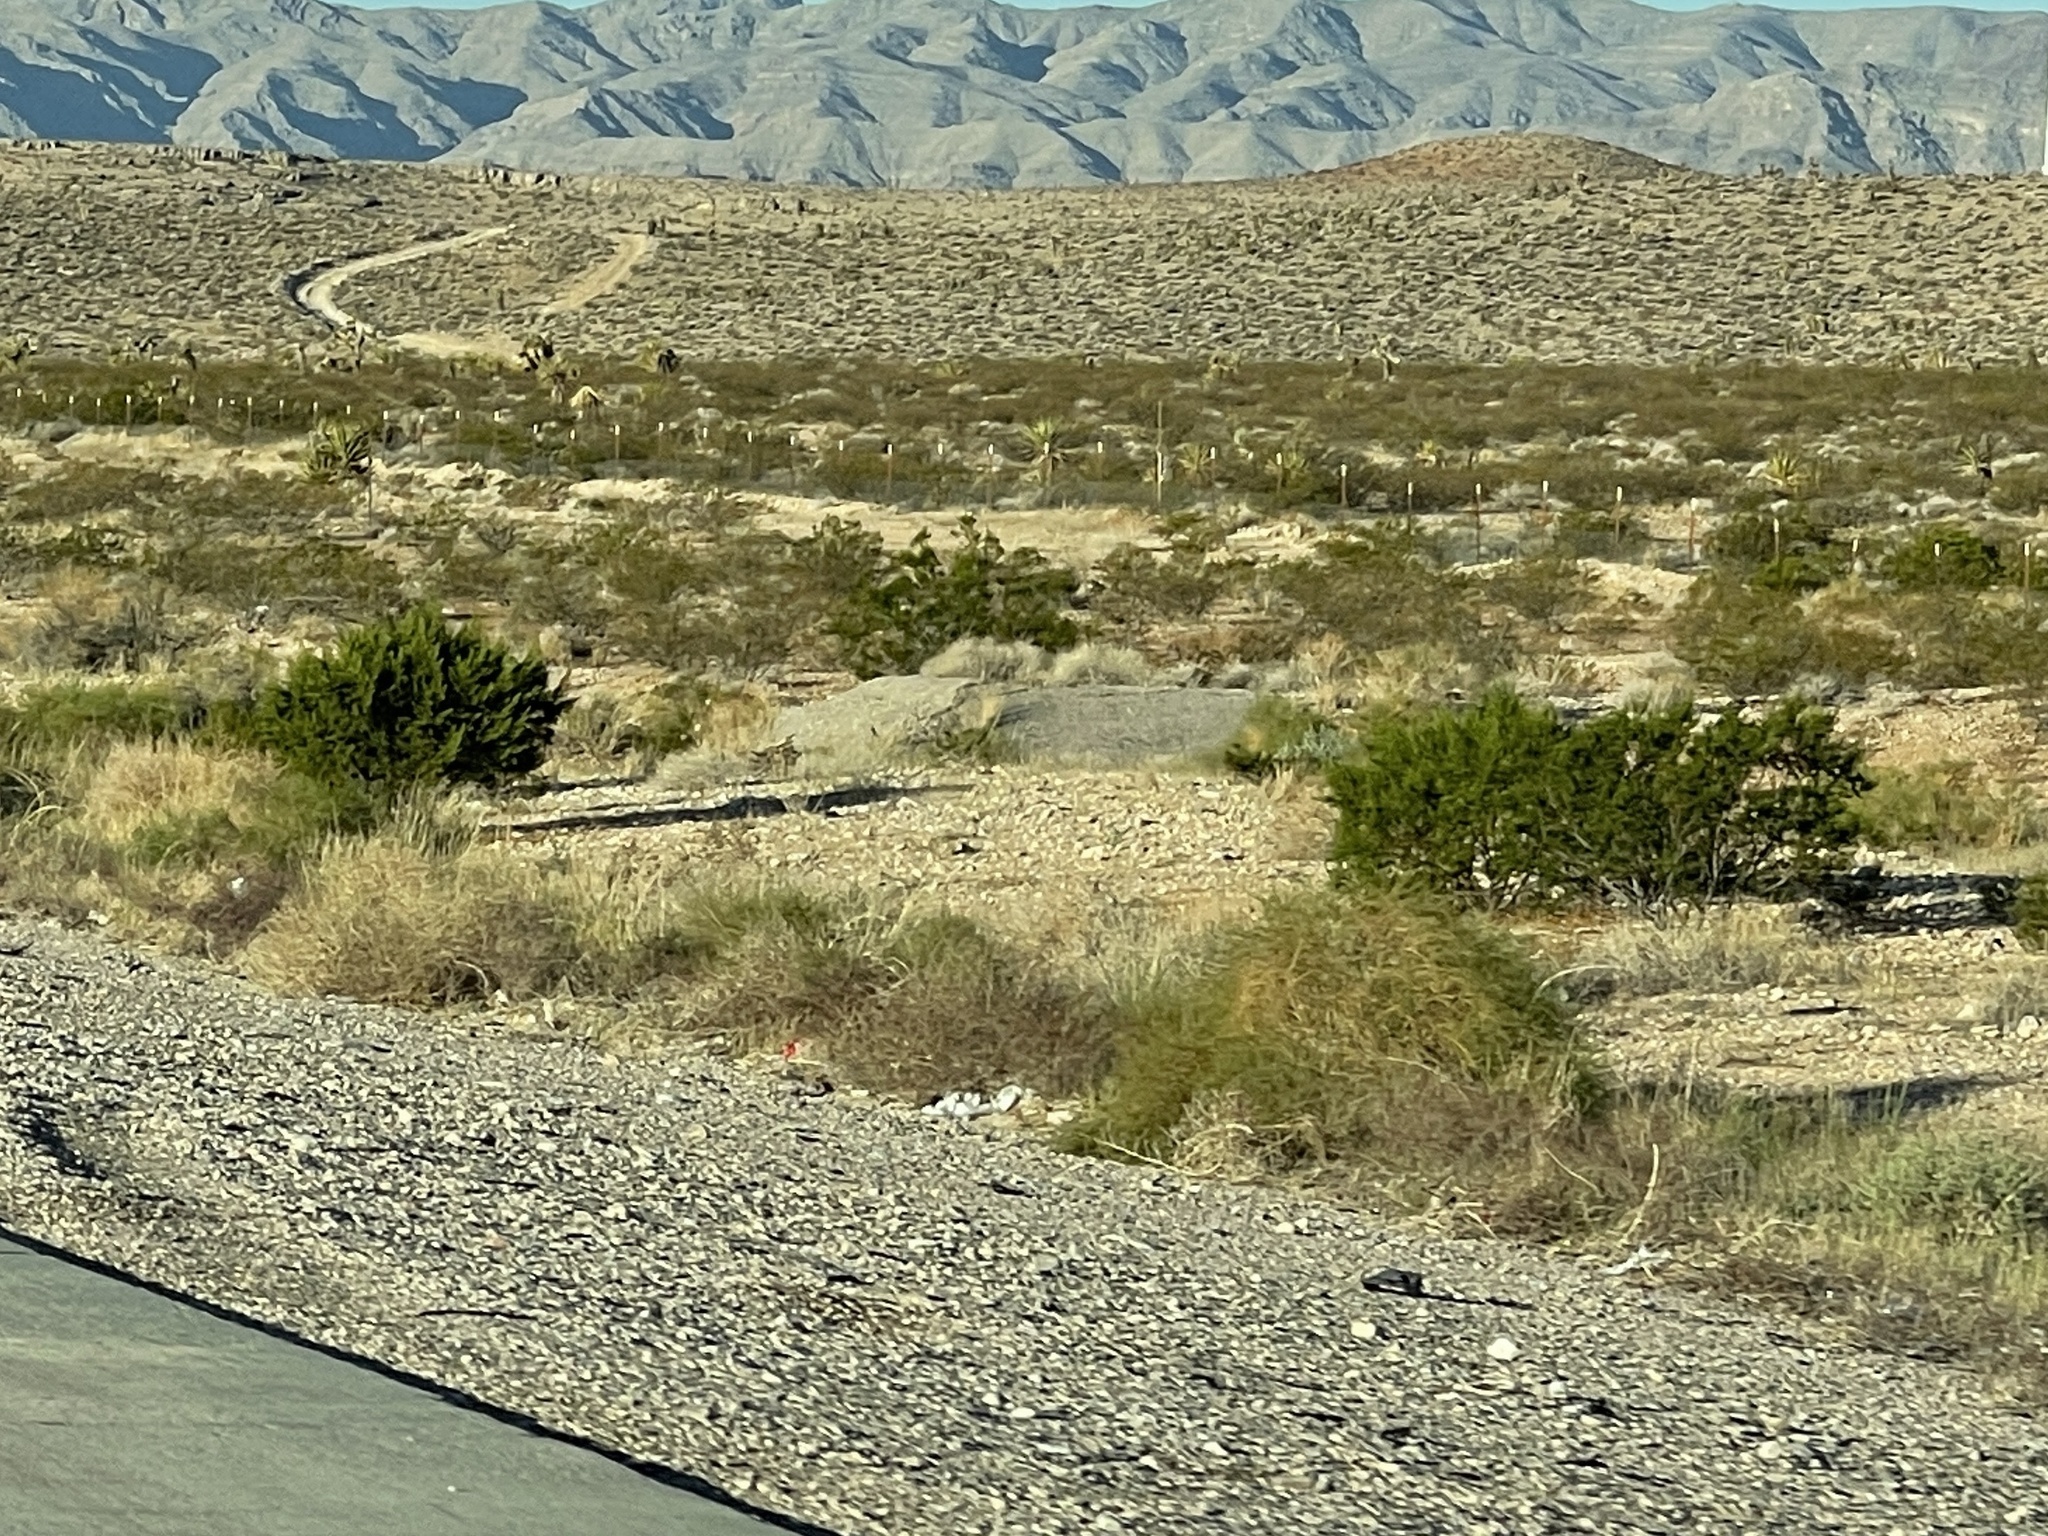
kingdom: Plantae
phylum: Tracheophyta
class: Magnoliopsida
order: Zygophyllales
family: Zygophyllaceae
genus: Larrea
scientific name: Larrea tridentata
